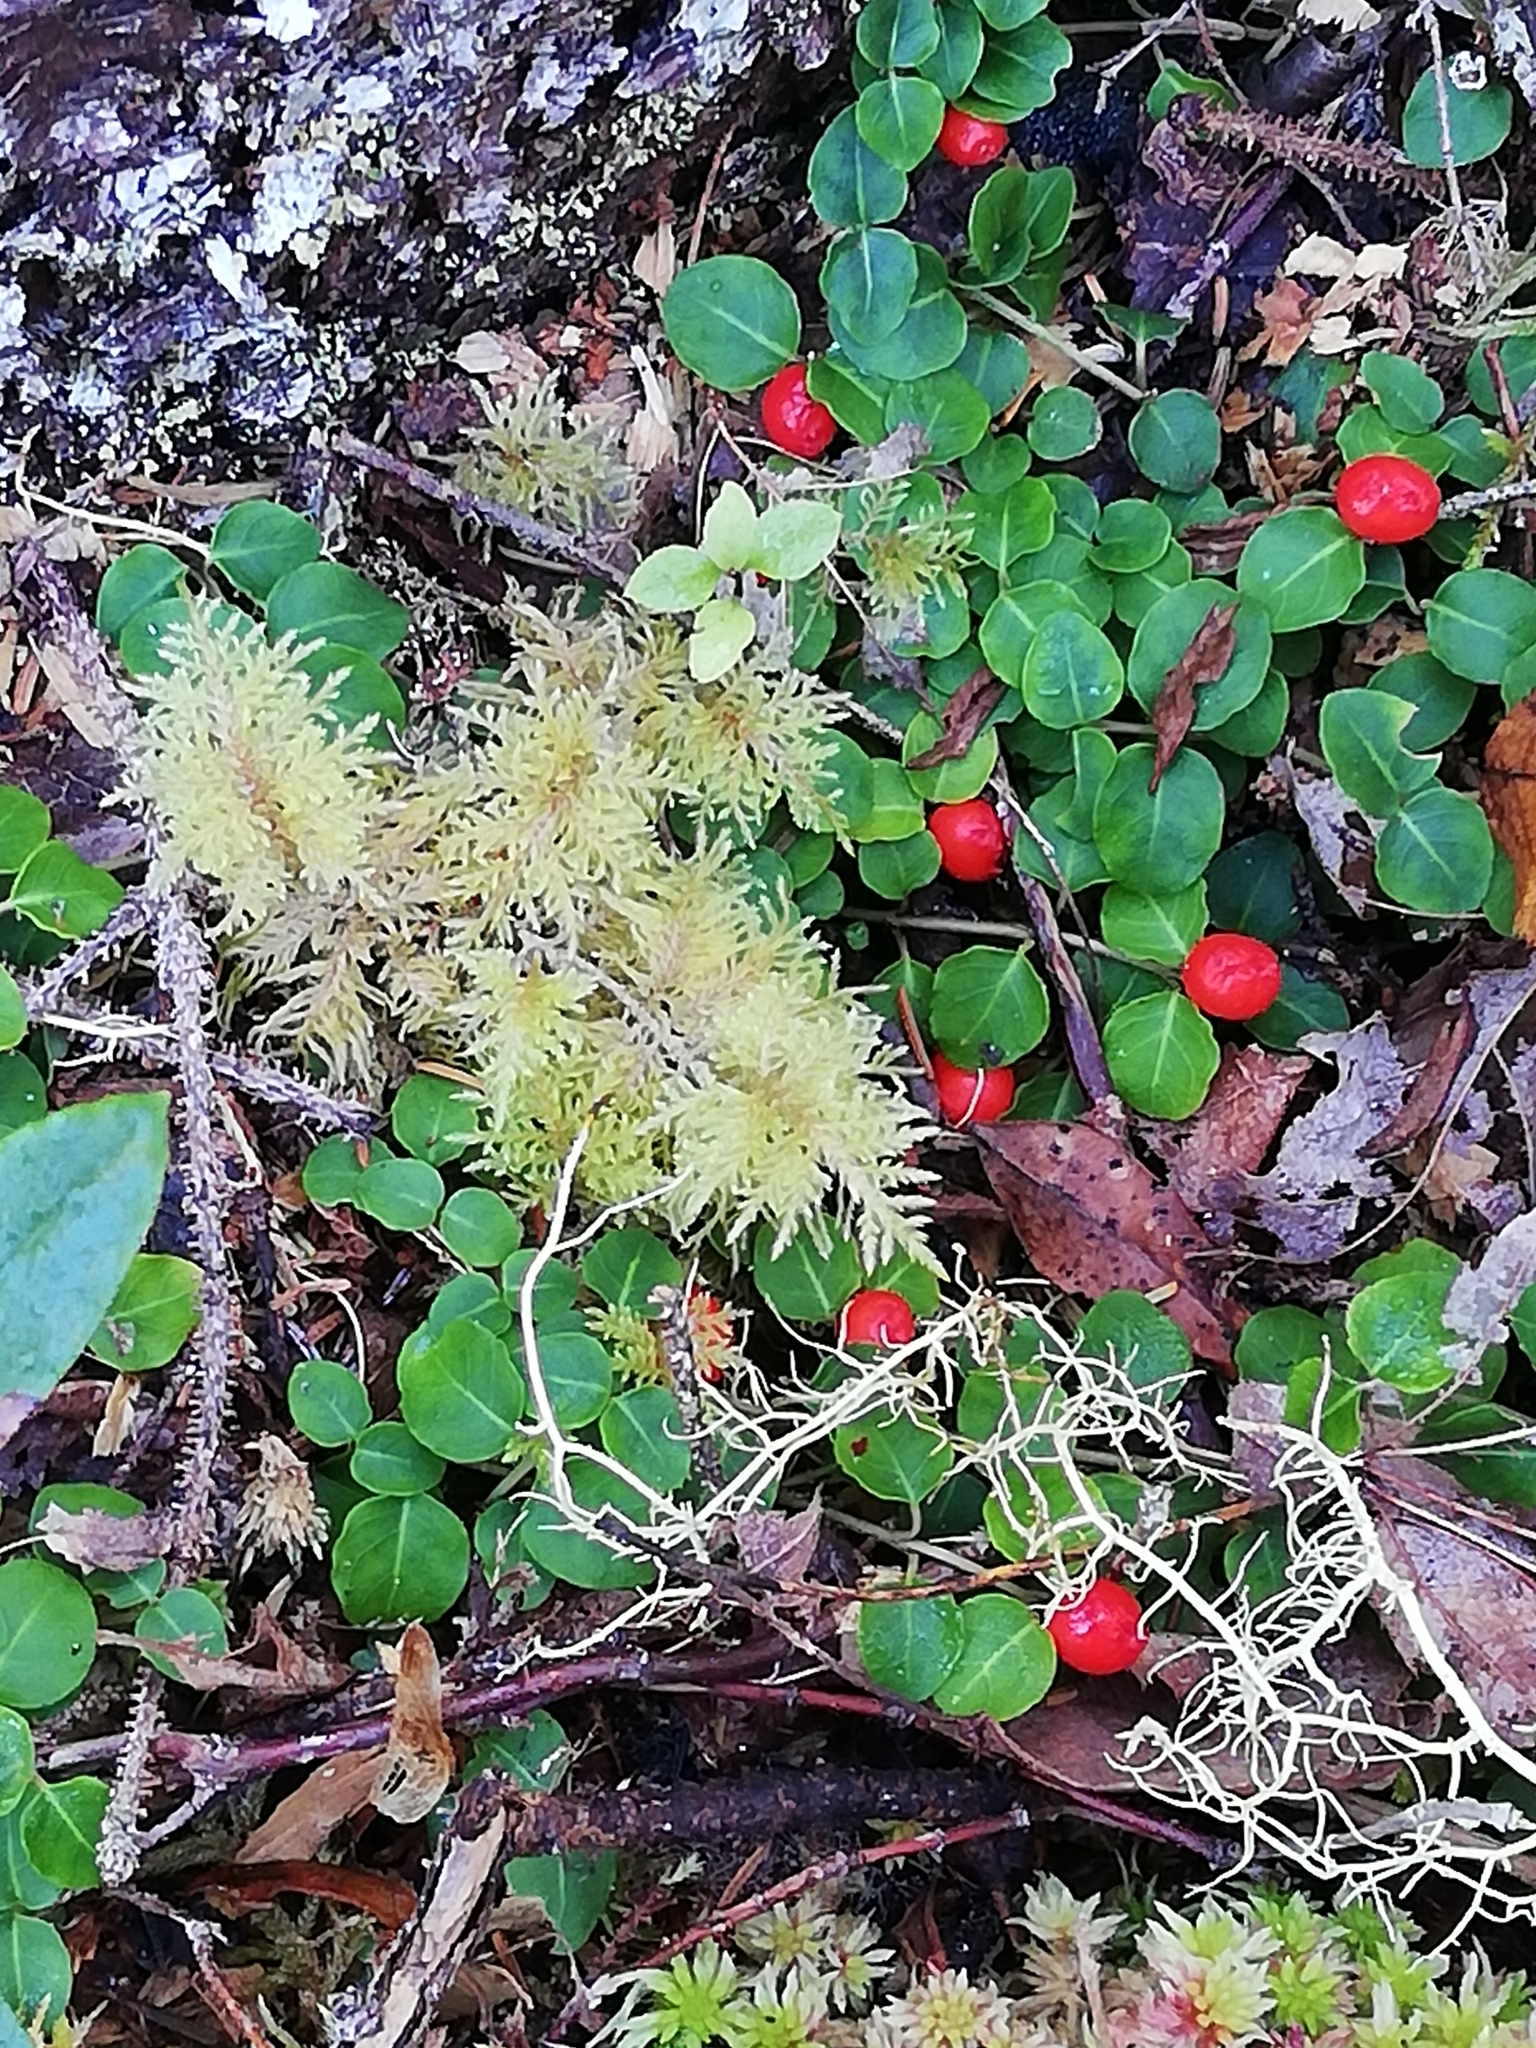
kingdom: Plantae
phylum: Tracheophyta
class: Magnoliopsida
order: Gentianales
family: Rubiaceae
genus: Mitchella
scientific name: Mitchella repens
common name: Partridge-berry
